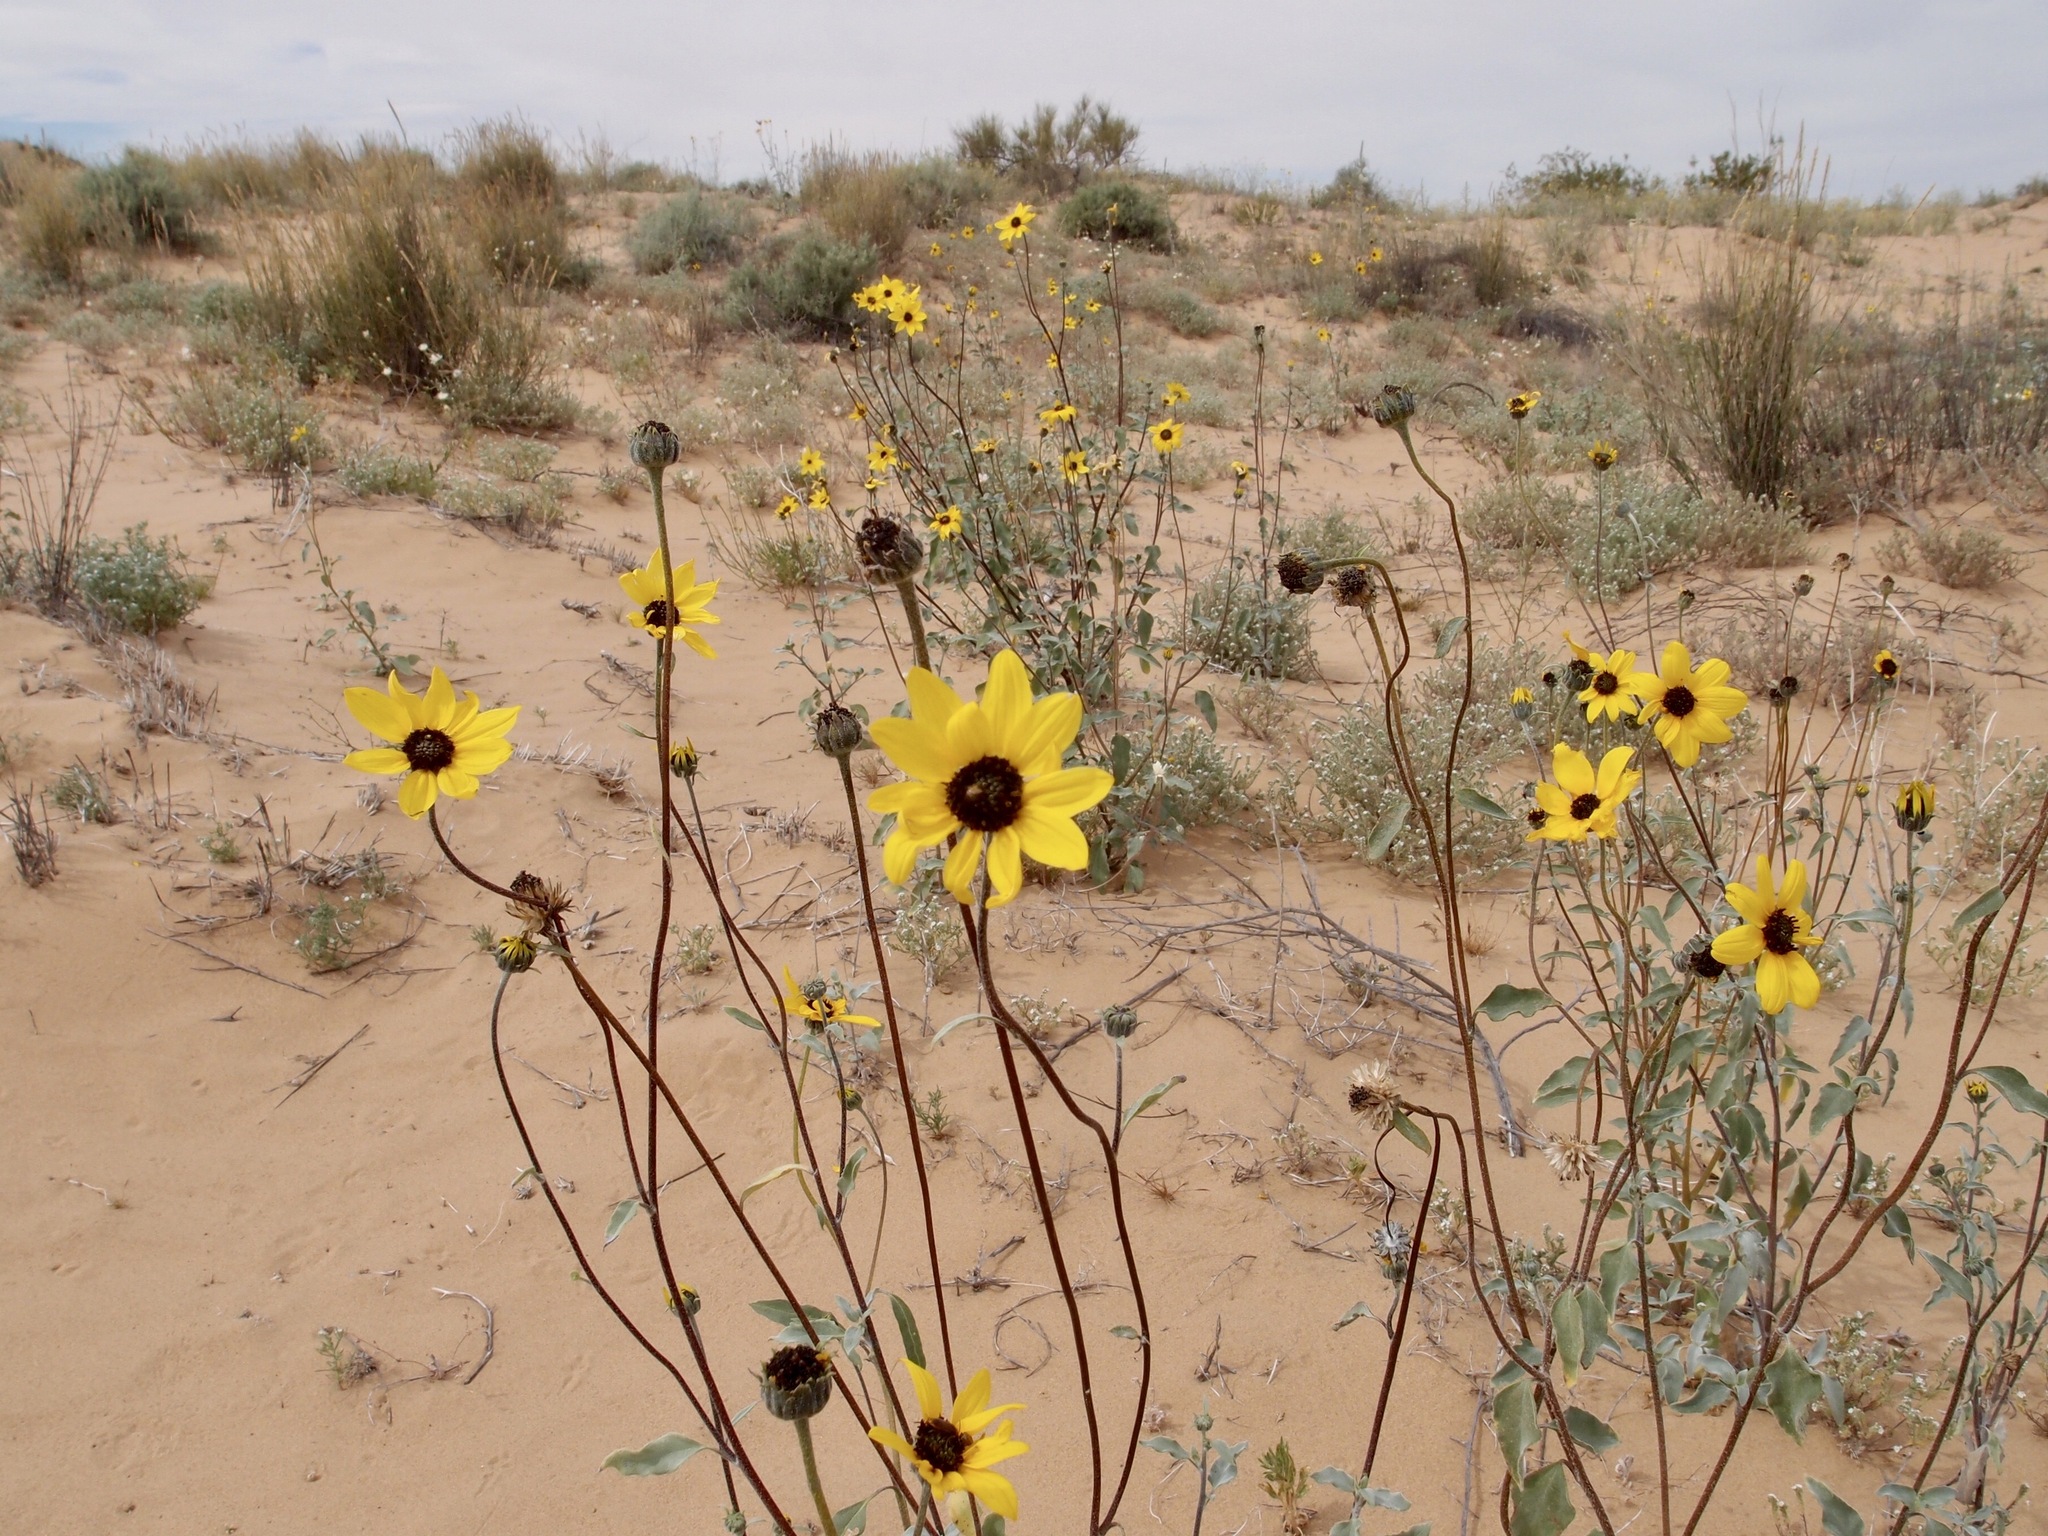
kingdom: Plantae
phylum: Tracheophyta
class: Magnoliopsida
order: Asterales
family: Asteraceae
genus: Helianthus
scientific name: Helianthus petiolaris
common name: Lesser sunflower
